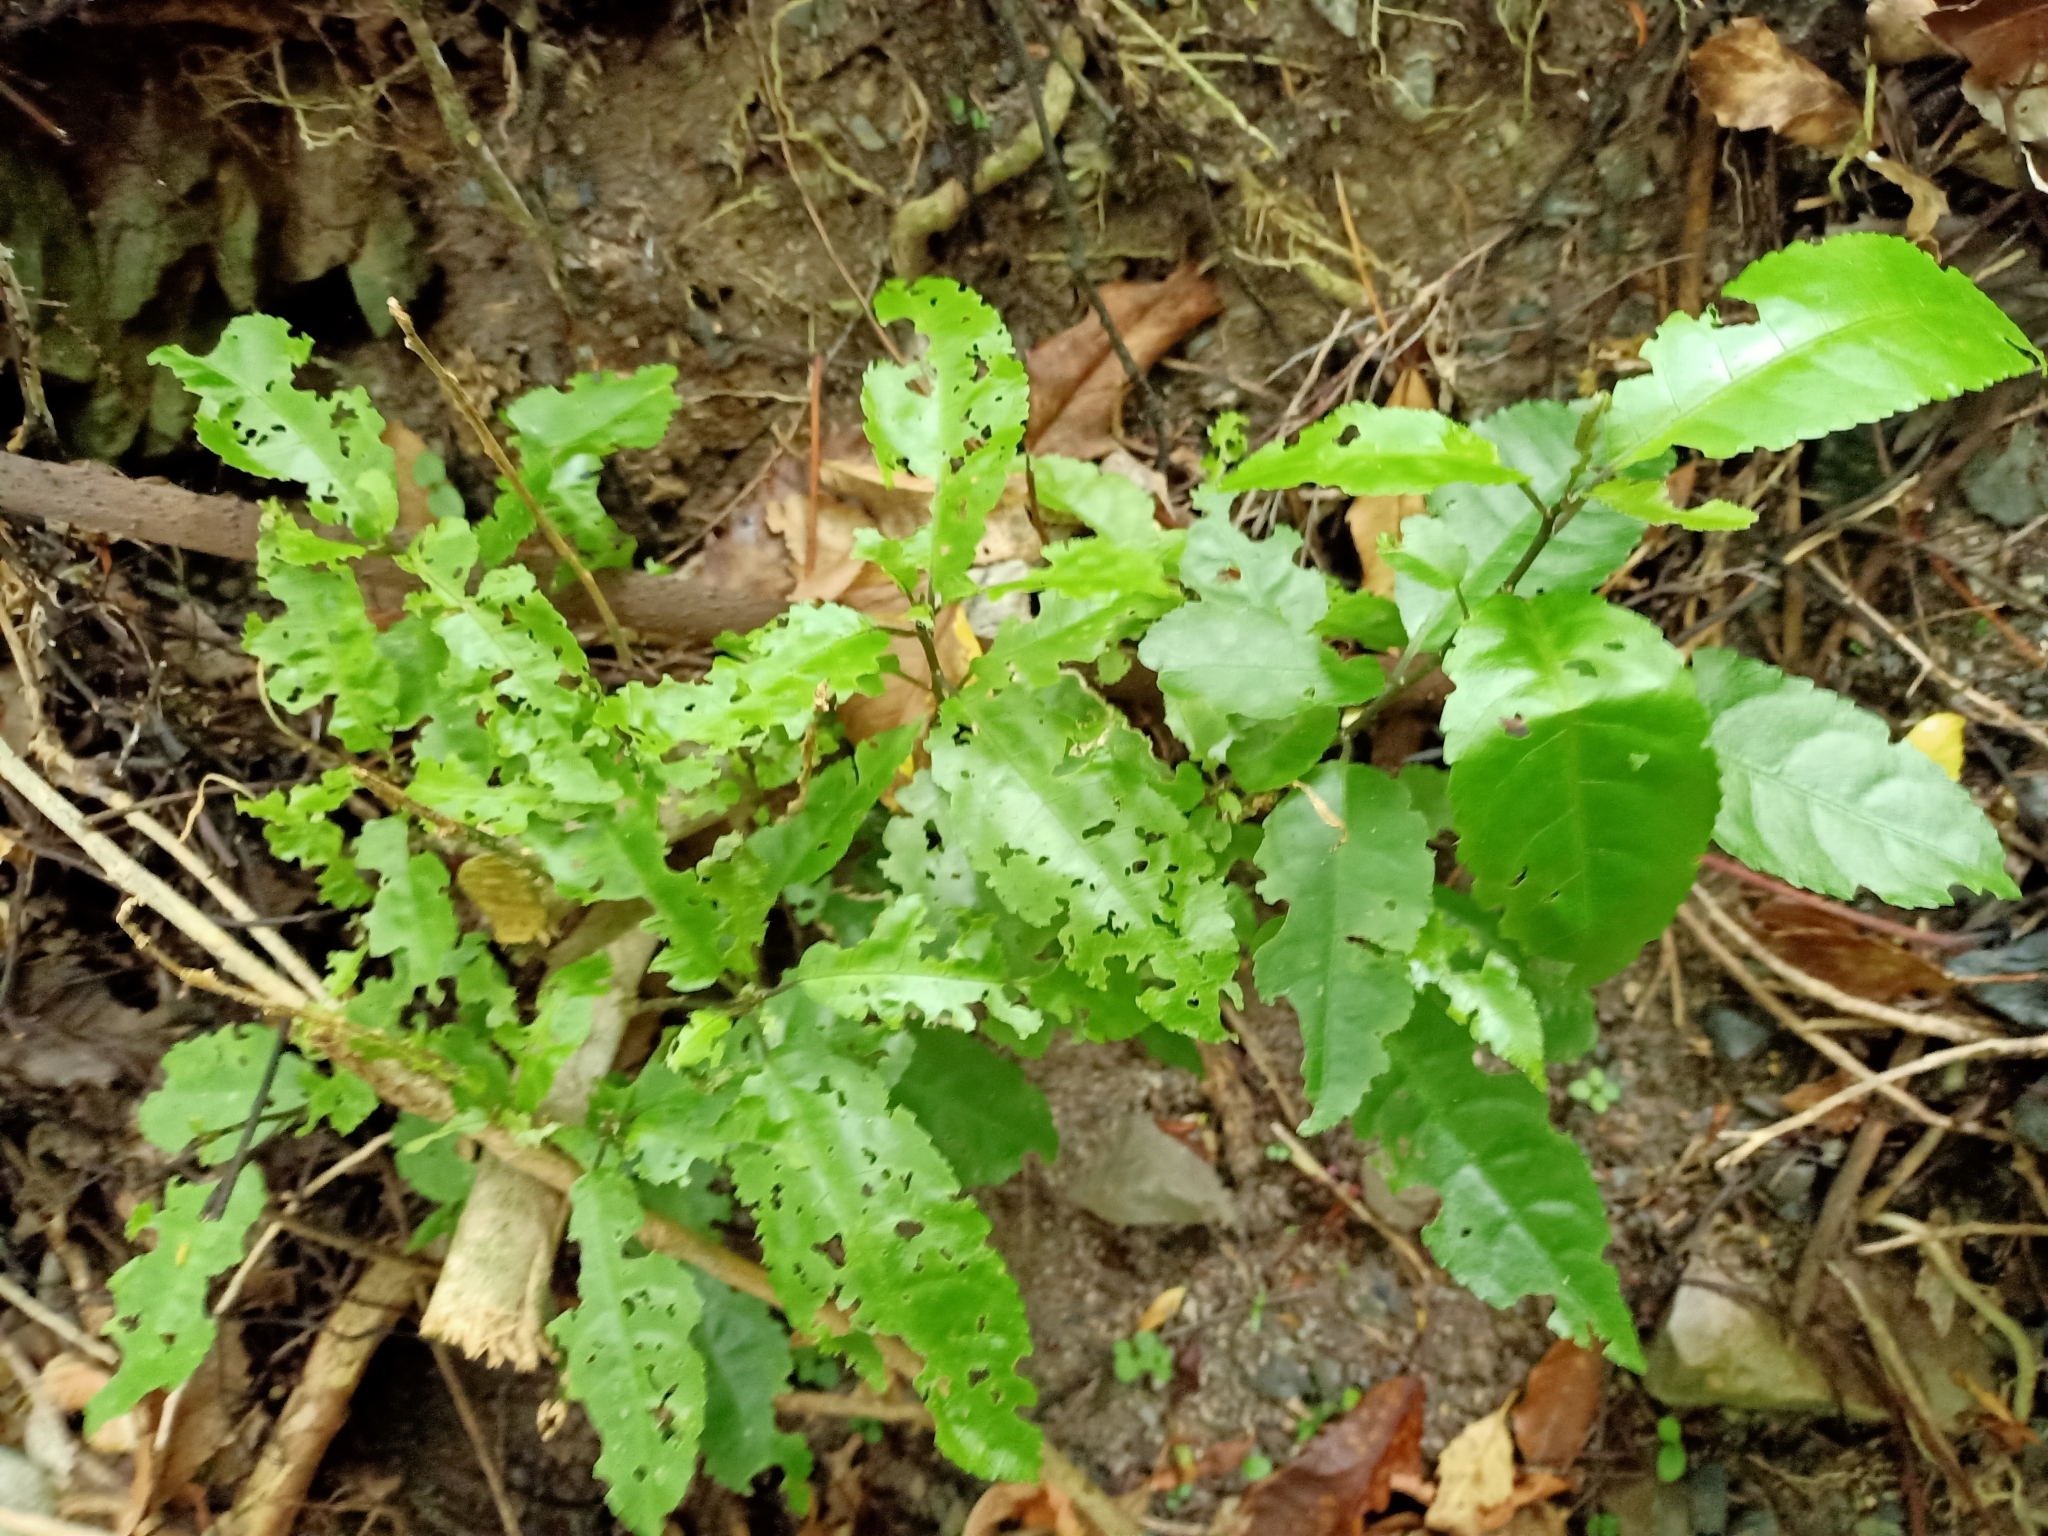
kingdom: Plantae
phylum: Tracheophyta
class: Magnoliopsida
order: Malpighiales
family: Violaceae
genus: Melicytus
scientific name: Melicytus ramiflorus
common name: Mahoe
